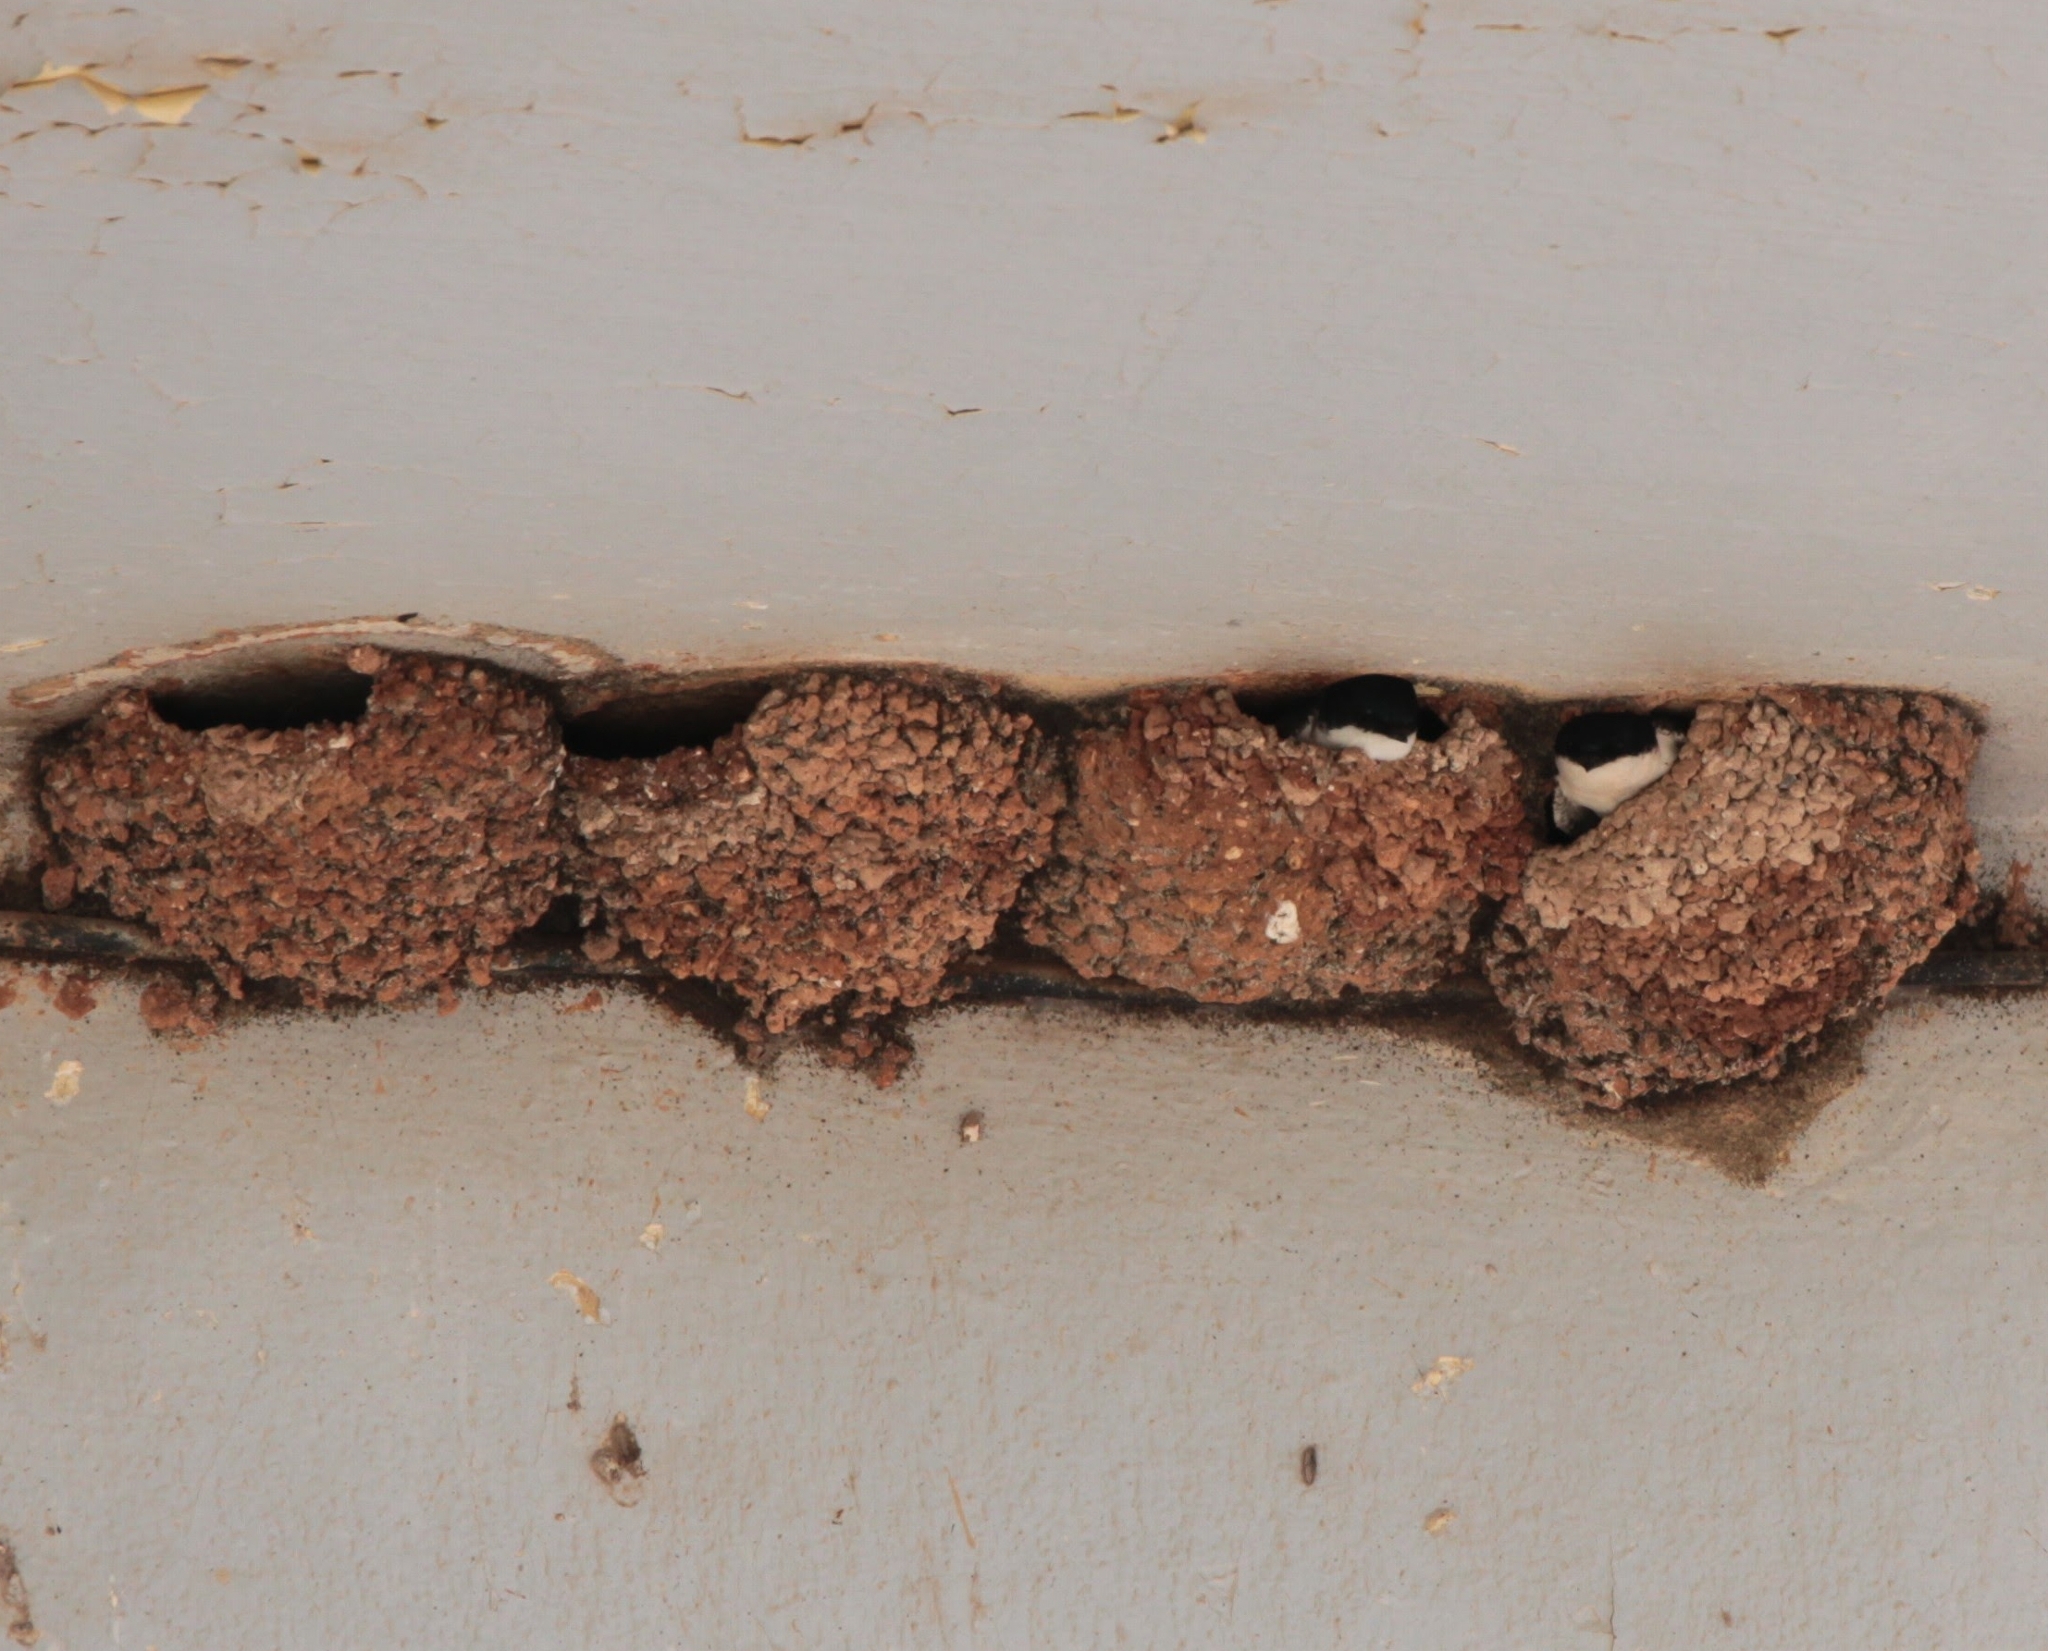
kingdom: Animalia
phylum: Chordata
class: Aves
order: Passeriformes
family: Hirundinidae
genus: Delichon
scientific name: Delichon urbicum
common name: Common house martin
